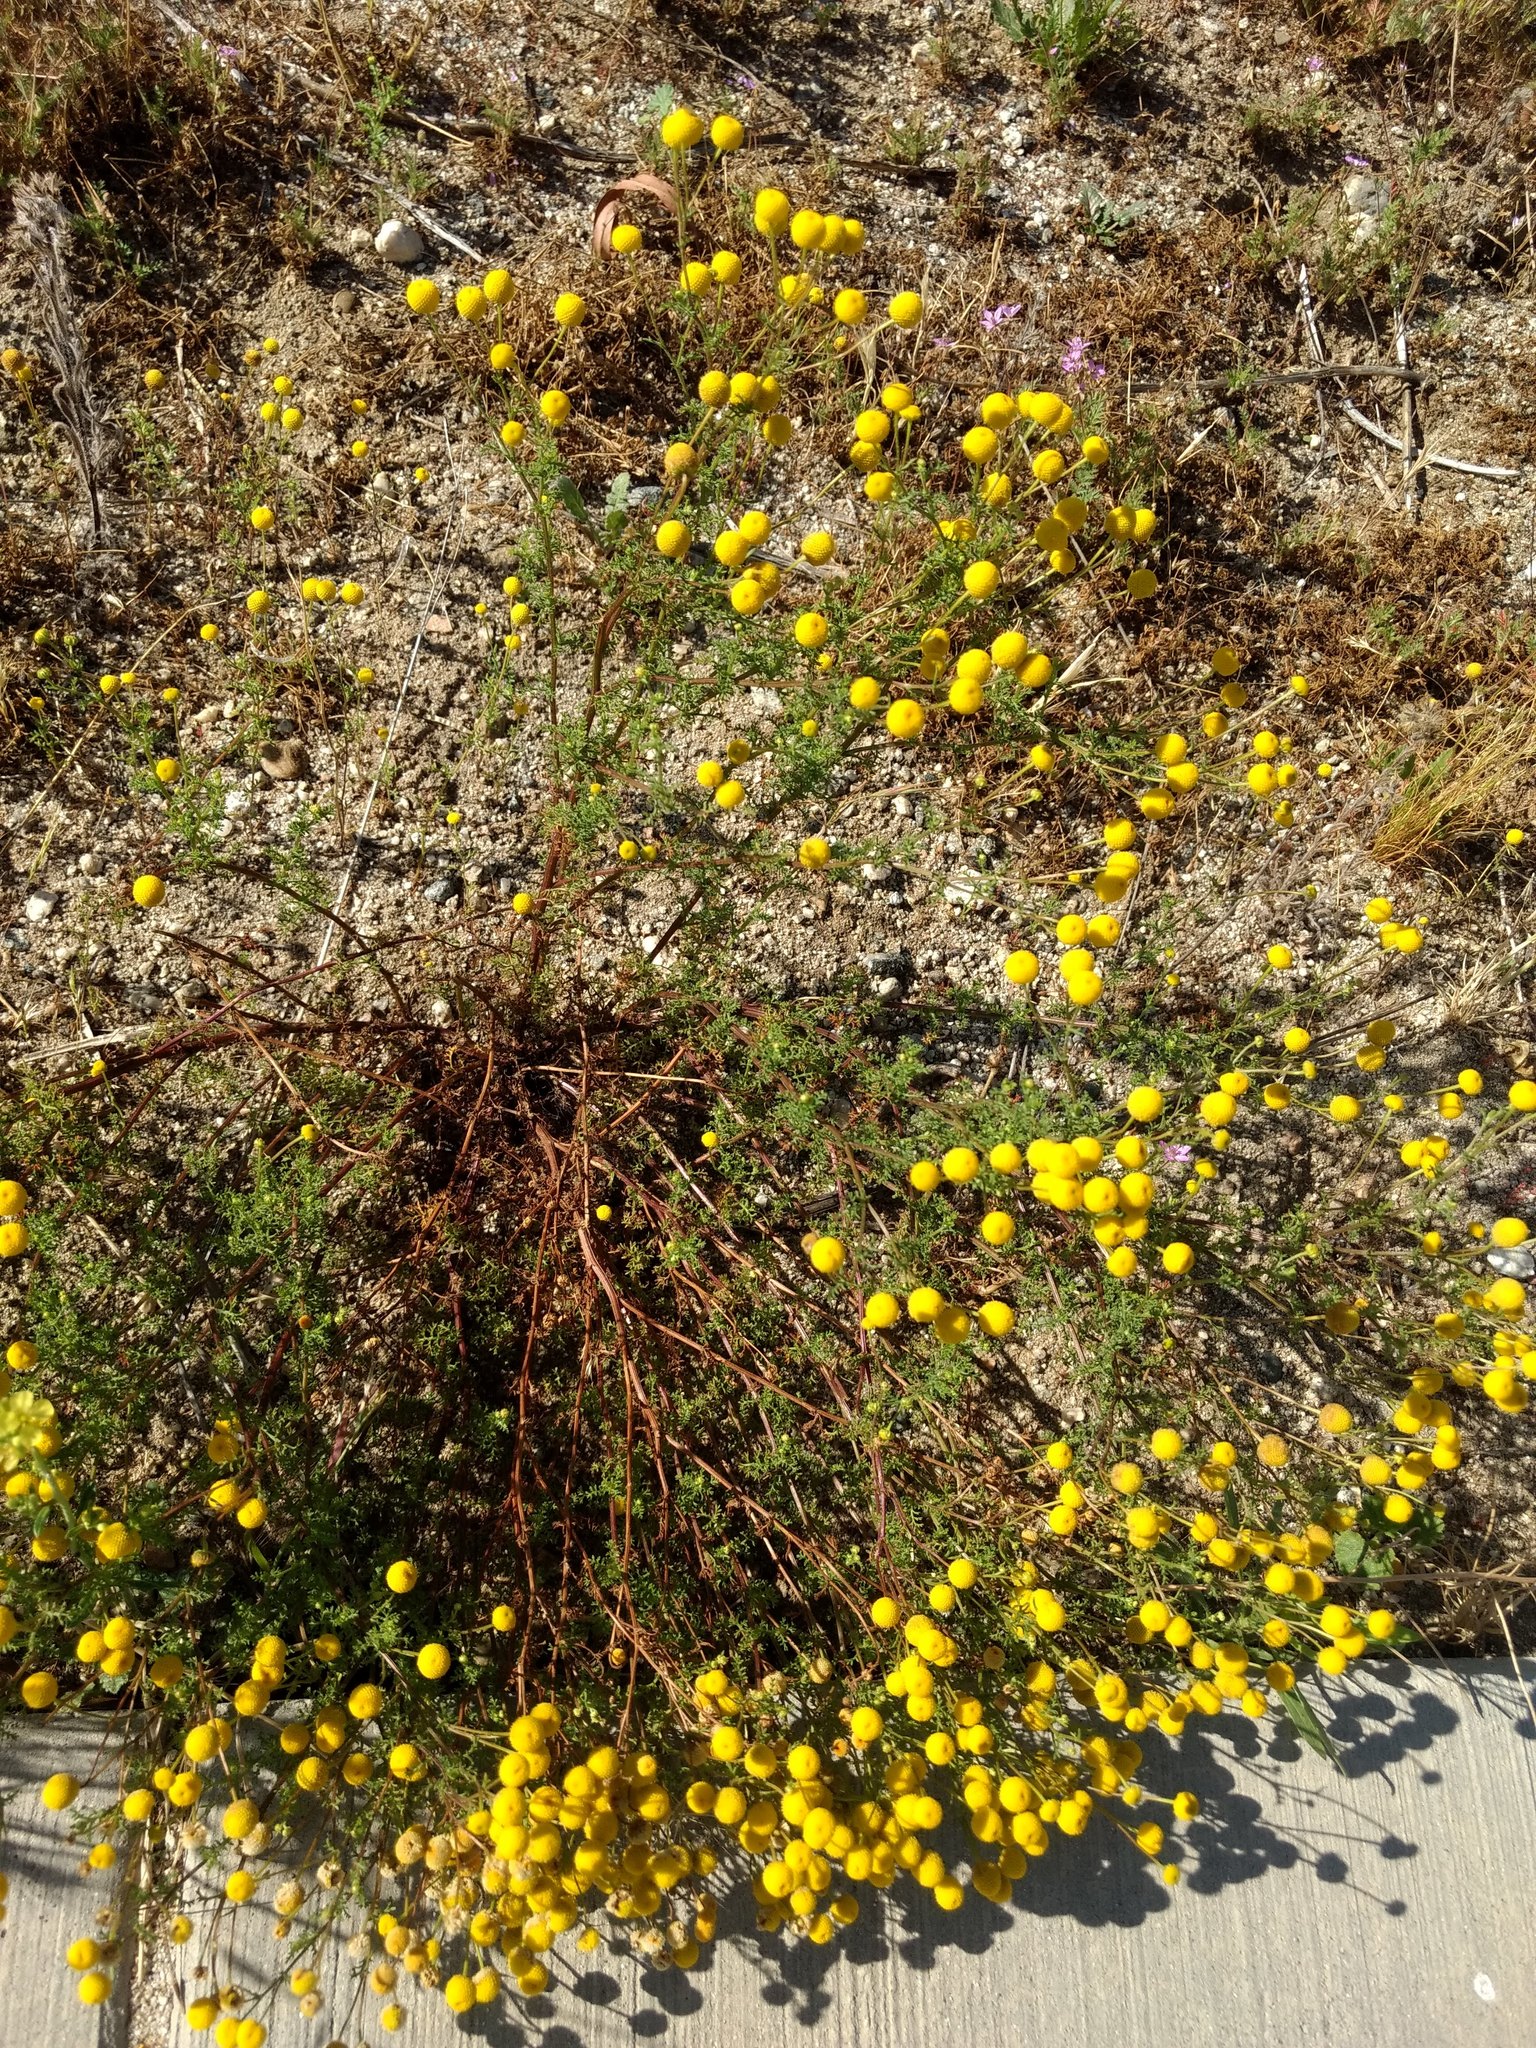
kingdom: Plantae
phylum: Tracheophyta
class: Magnoliopsida
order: Asterales
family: Asteraceae
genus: Oncosiphon
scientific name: Oncosiphon pilulifer
